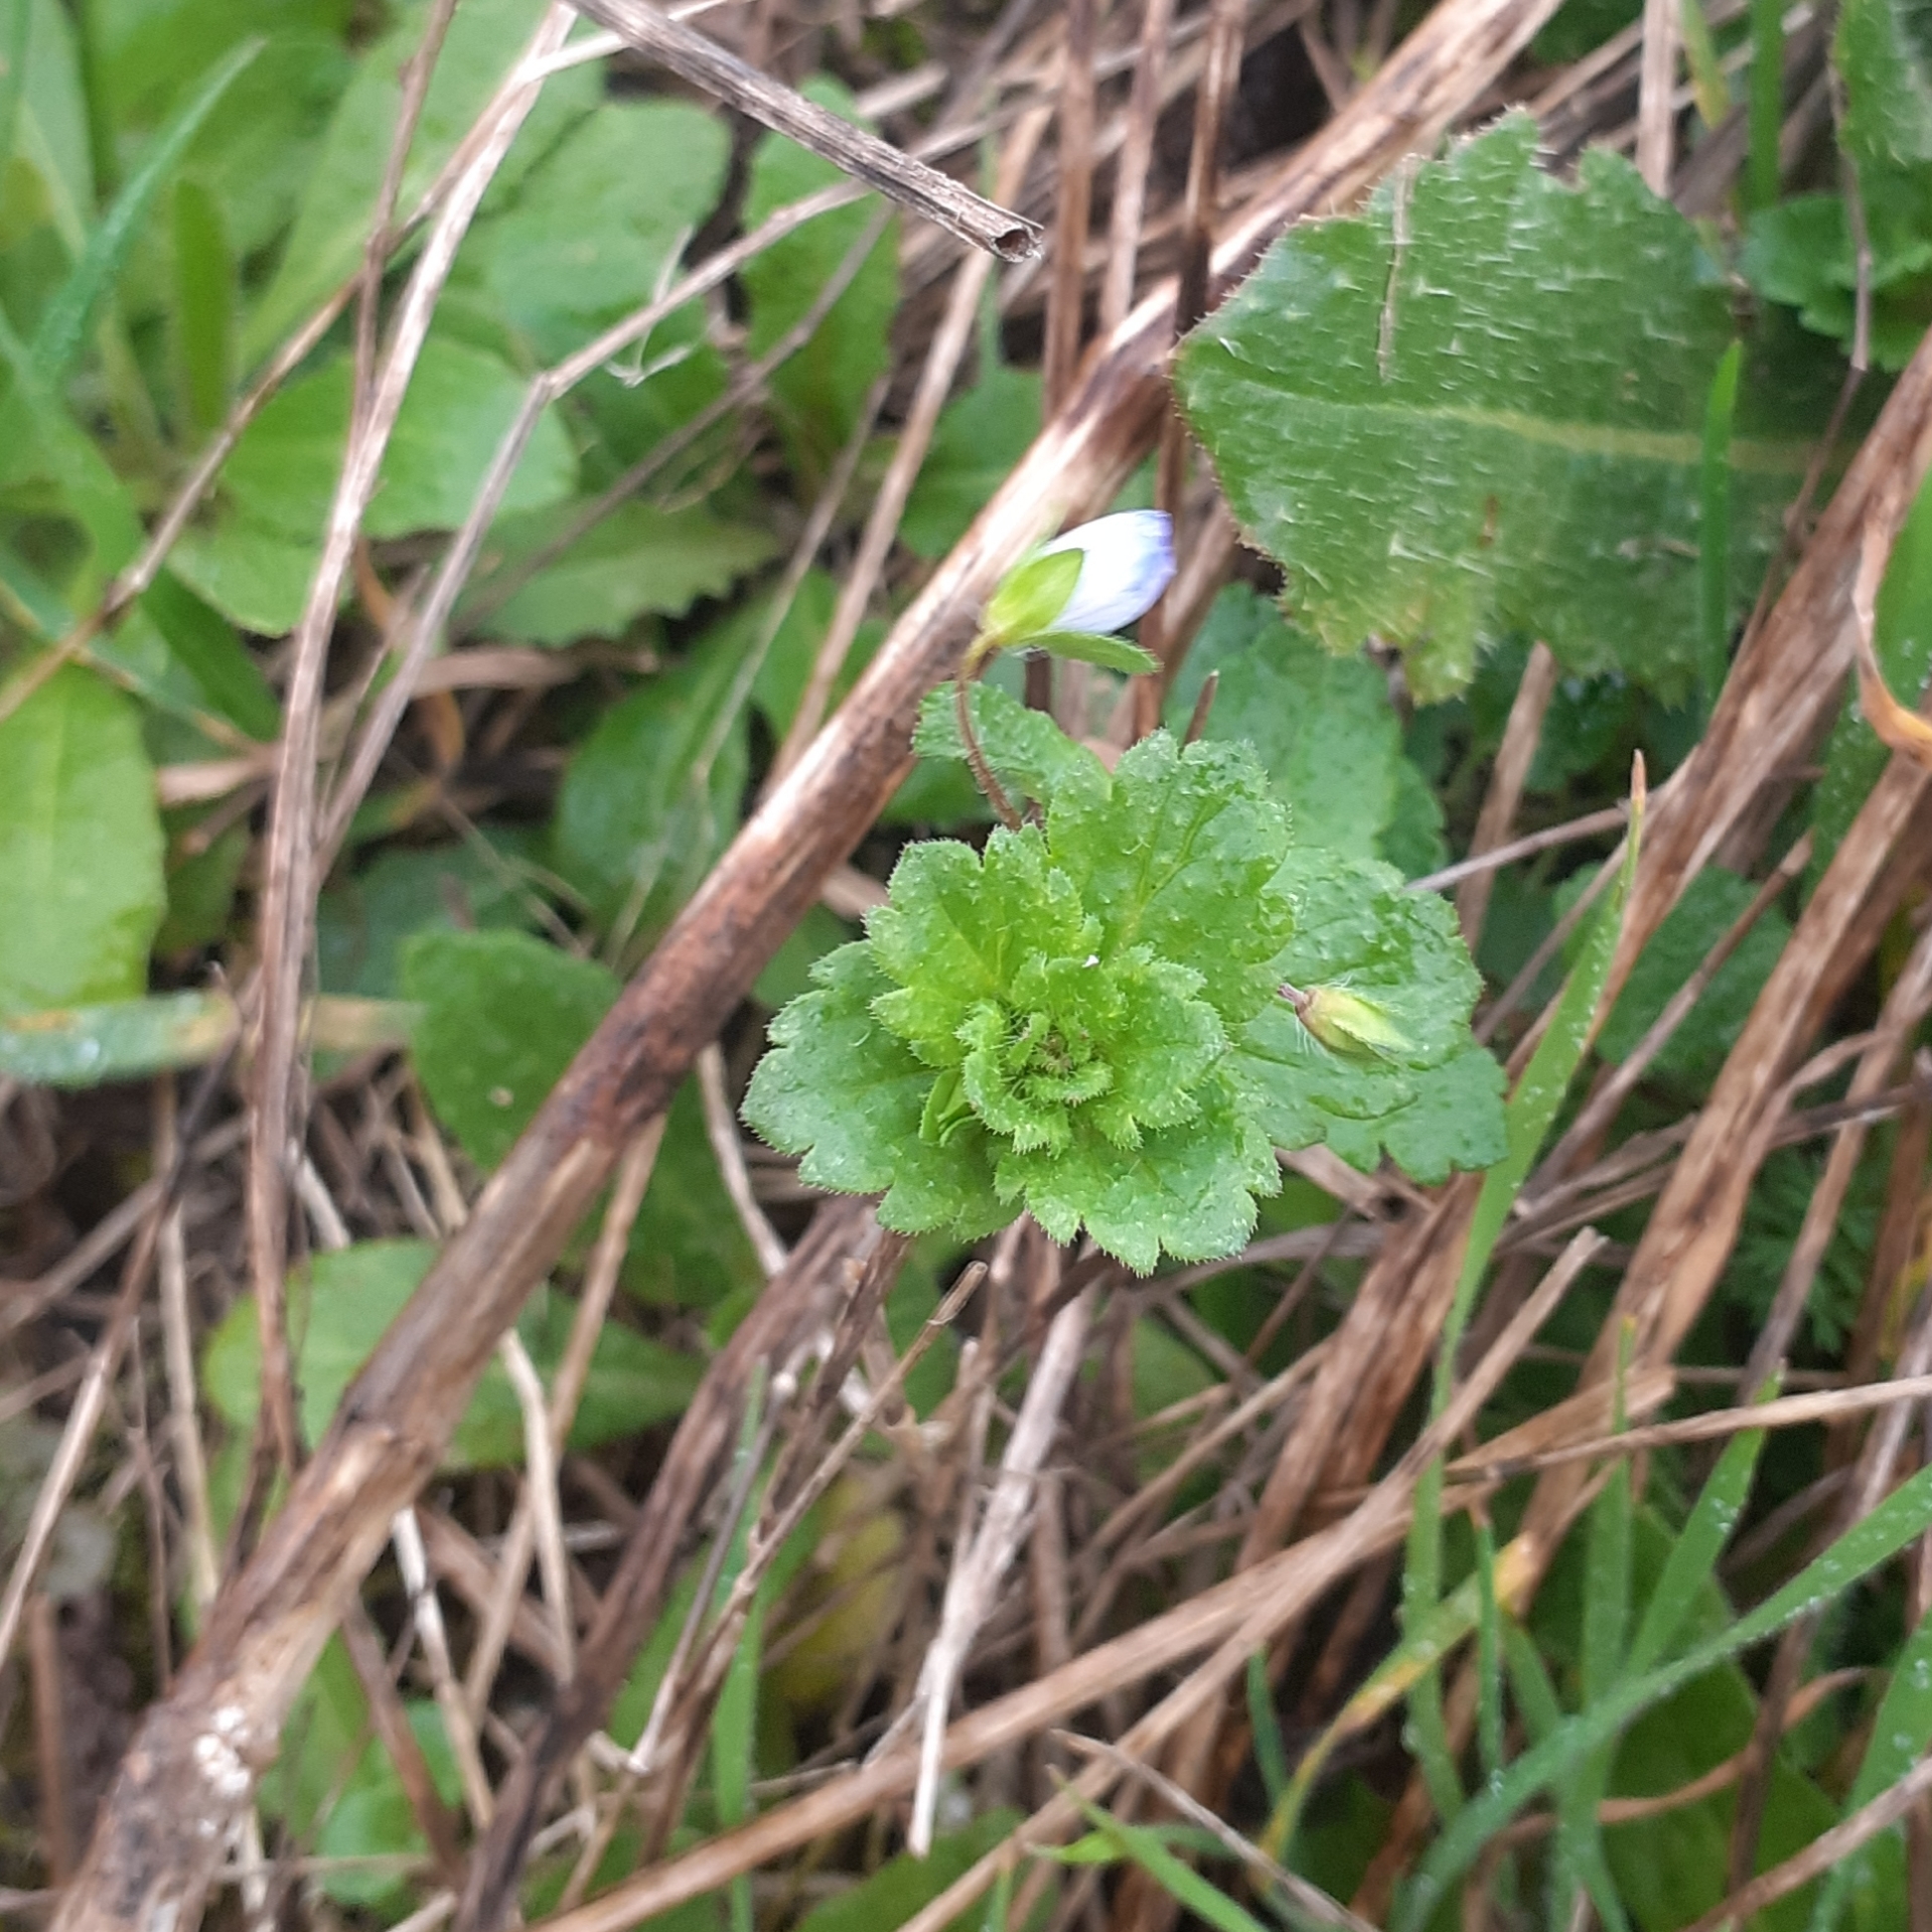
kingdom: Plantae
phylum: Tracheophyta
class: Magnoliopsida
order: Lamiales
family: Plantaginaceae
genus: Veronica
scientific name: Veronica persica
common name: Common field-speedwell
